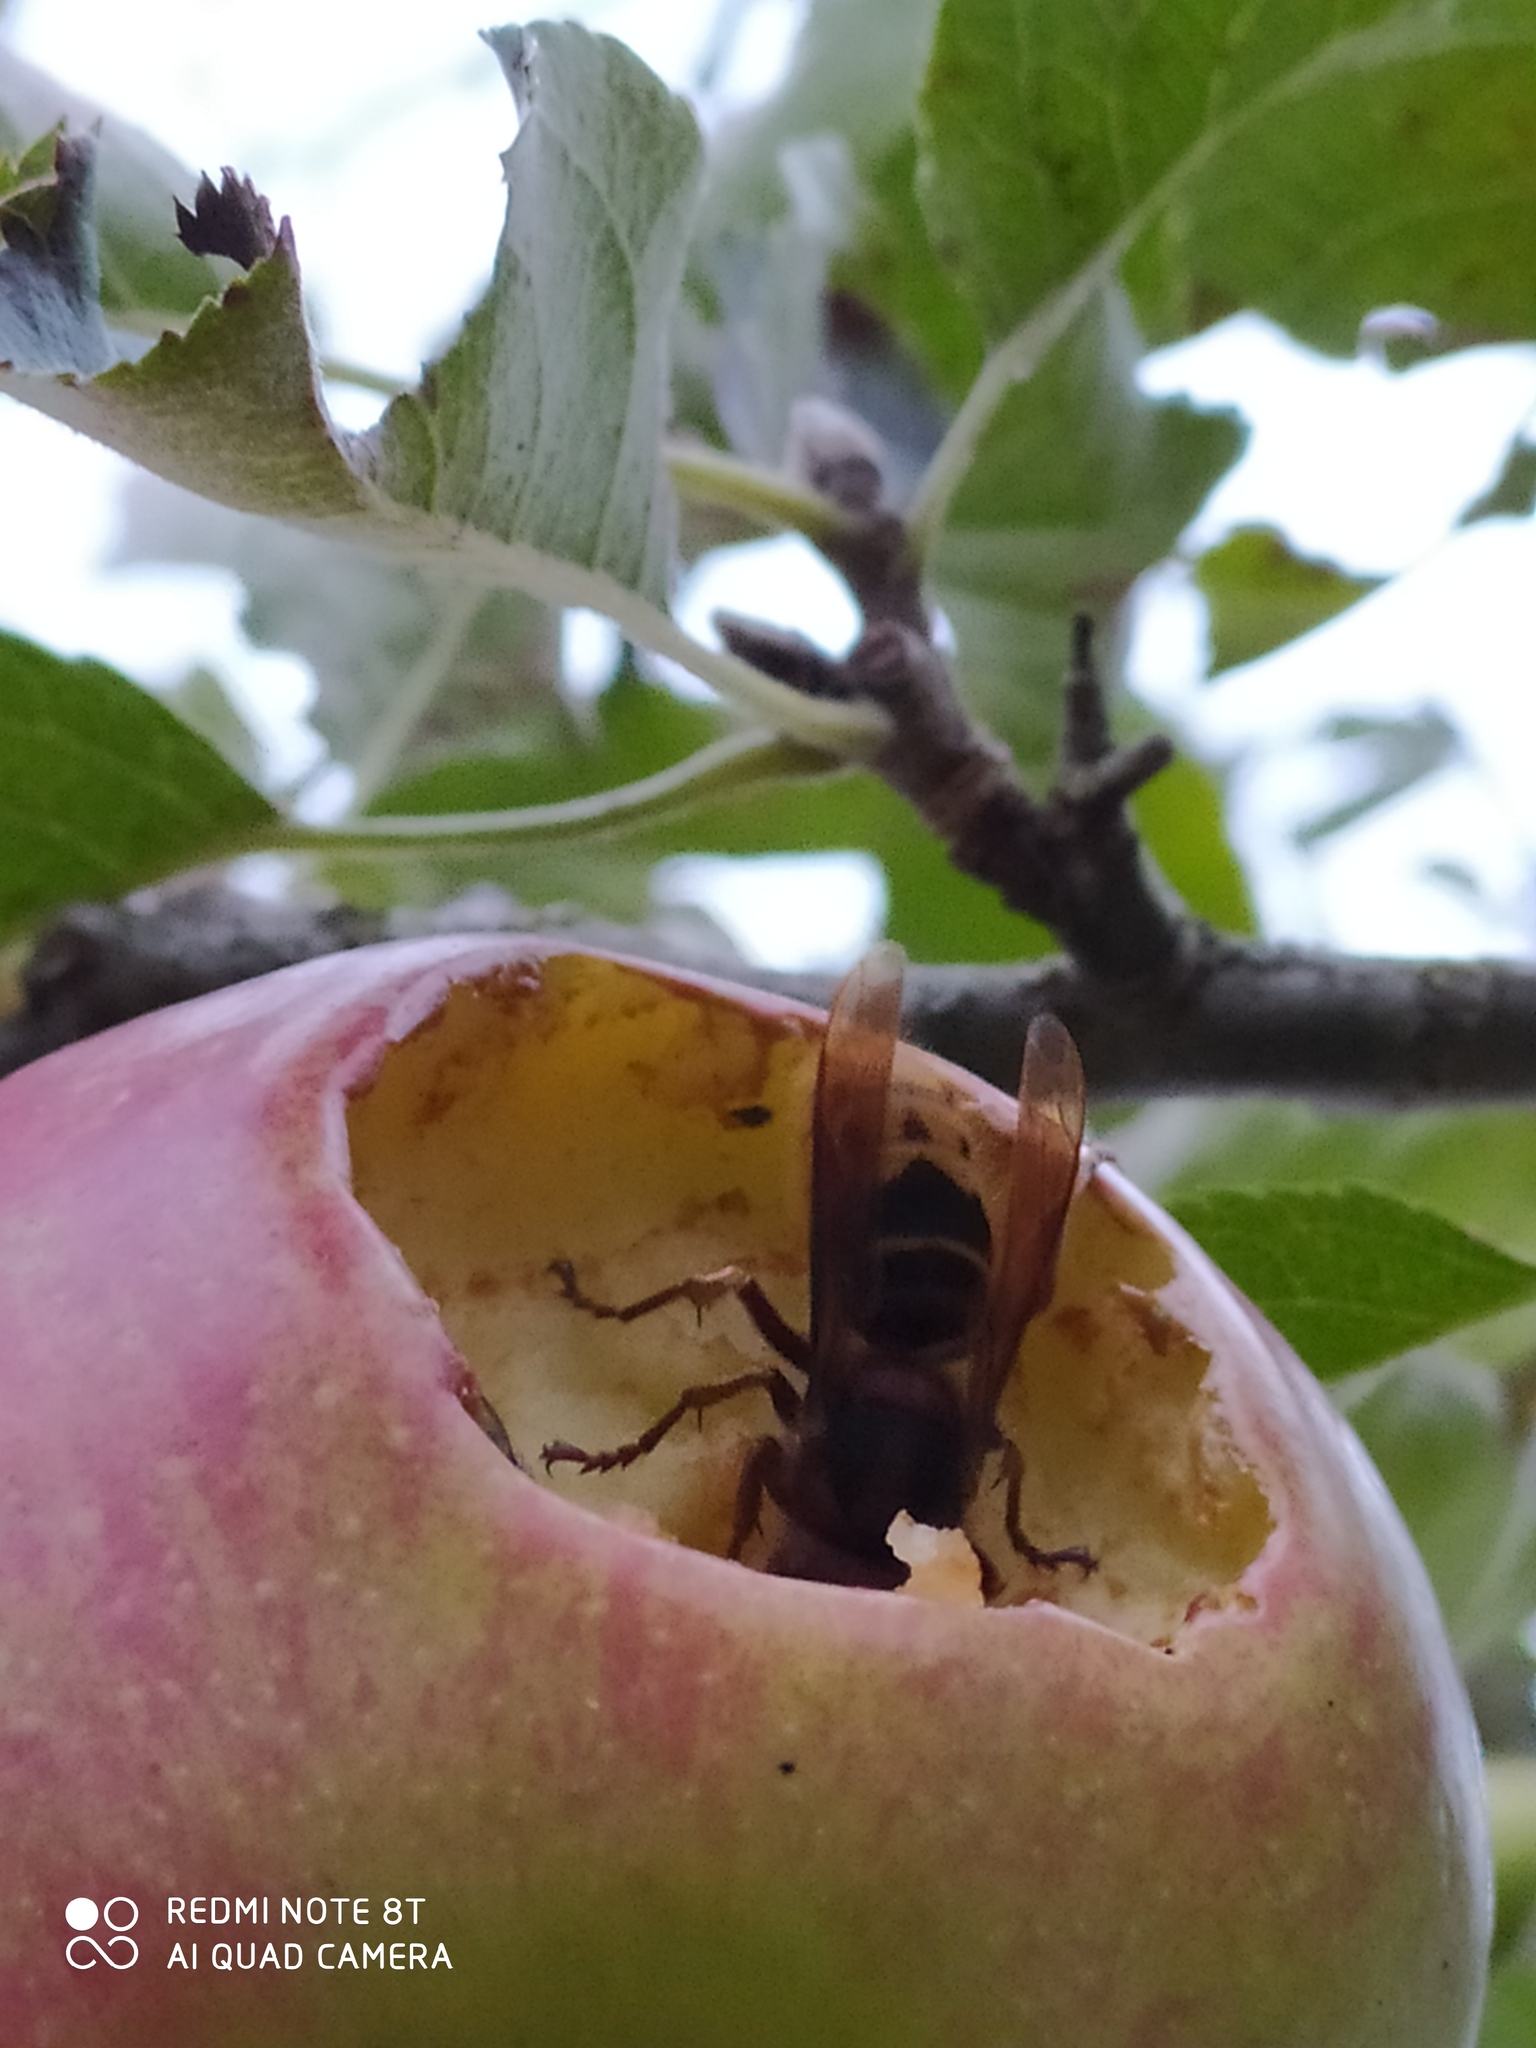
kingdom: Animalia
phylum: Arthropoda
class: Insecta
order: Hymenoptera
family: Vespidae
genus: Vespa
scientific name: Vespa crabro
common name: Hornet
